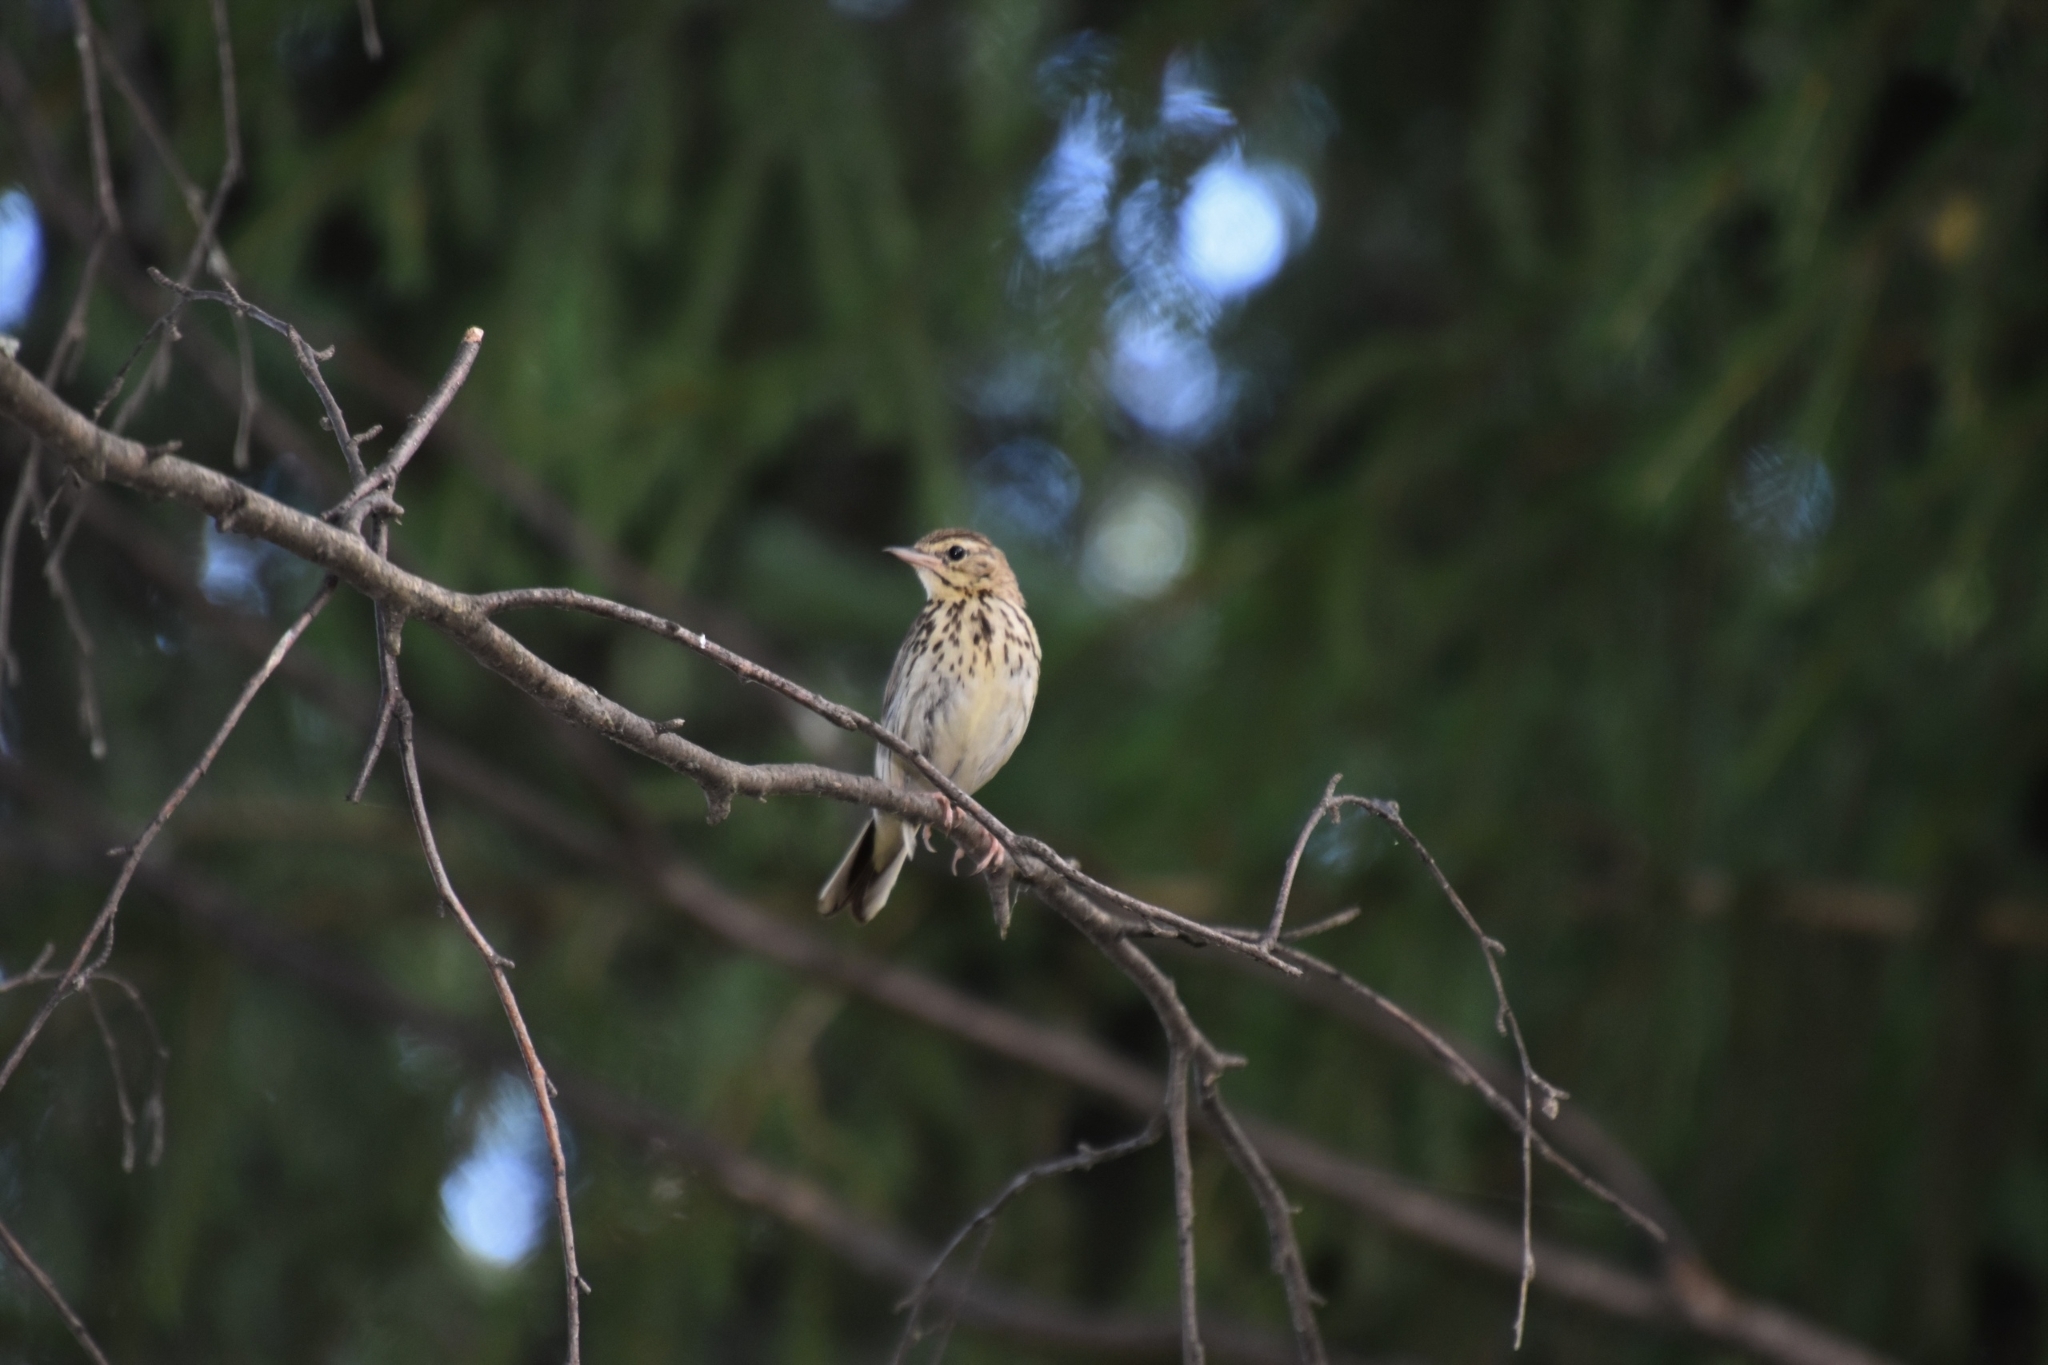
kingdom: Animalia
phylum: Chordata
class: Aves
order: Passeriformes
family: Motacillidae
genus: Anthus
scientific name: Anthus trivialis
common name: Tree pipit
